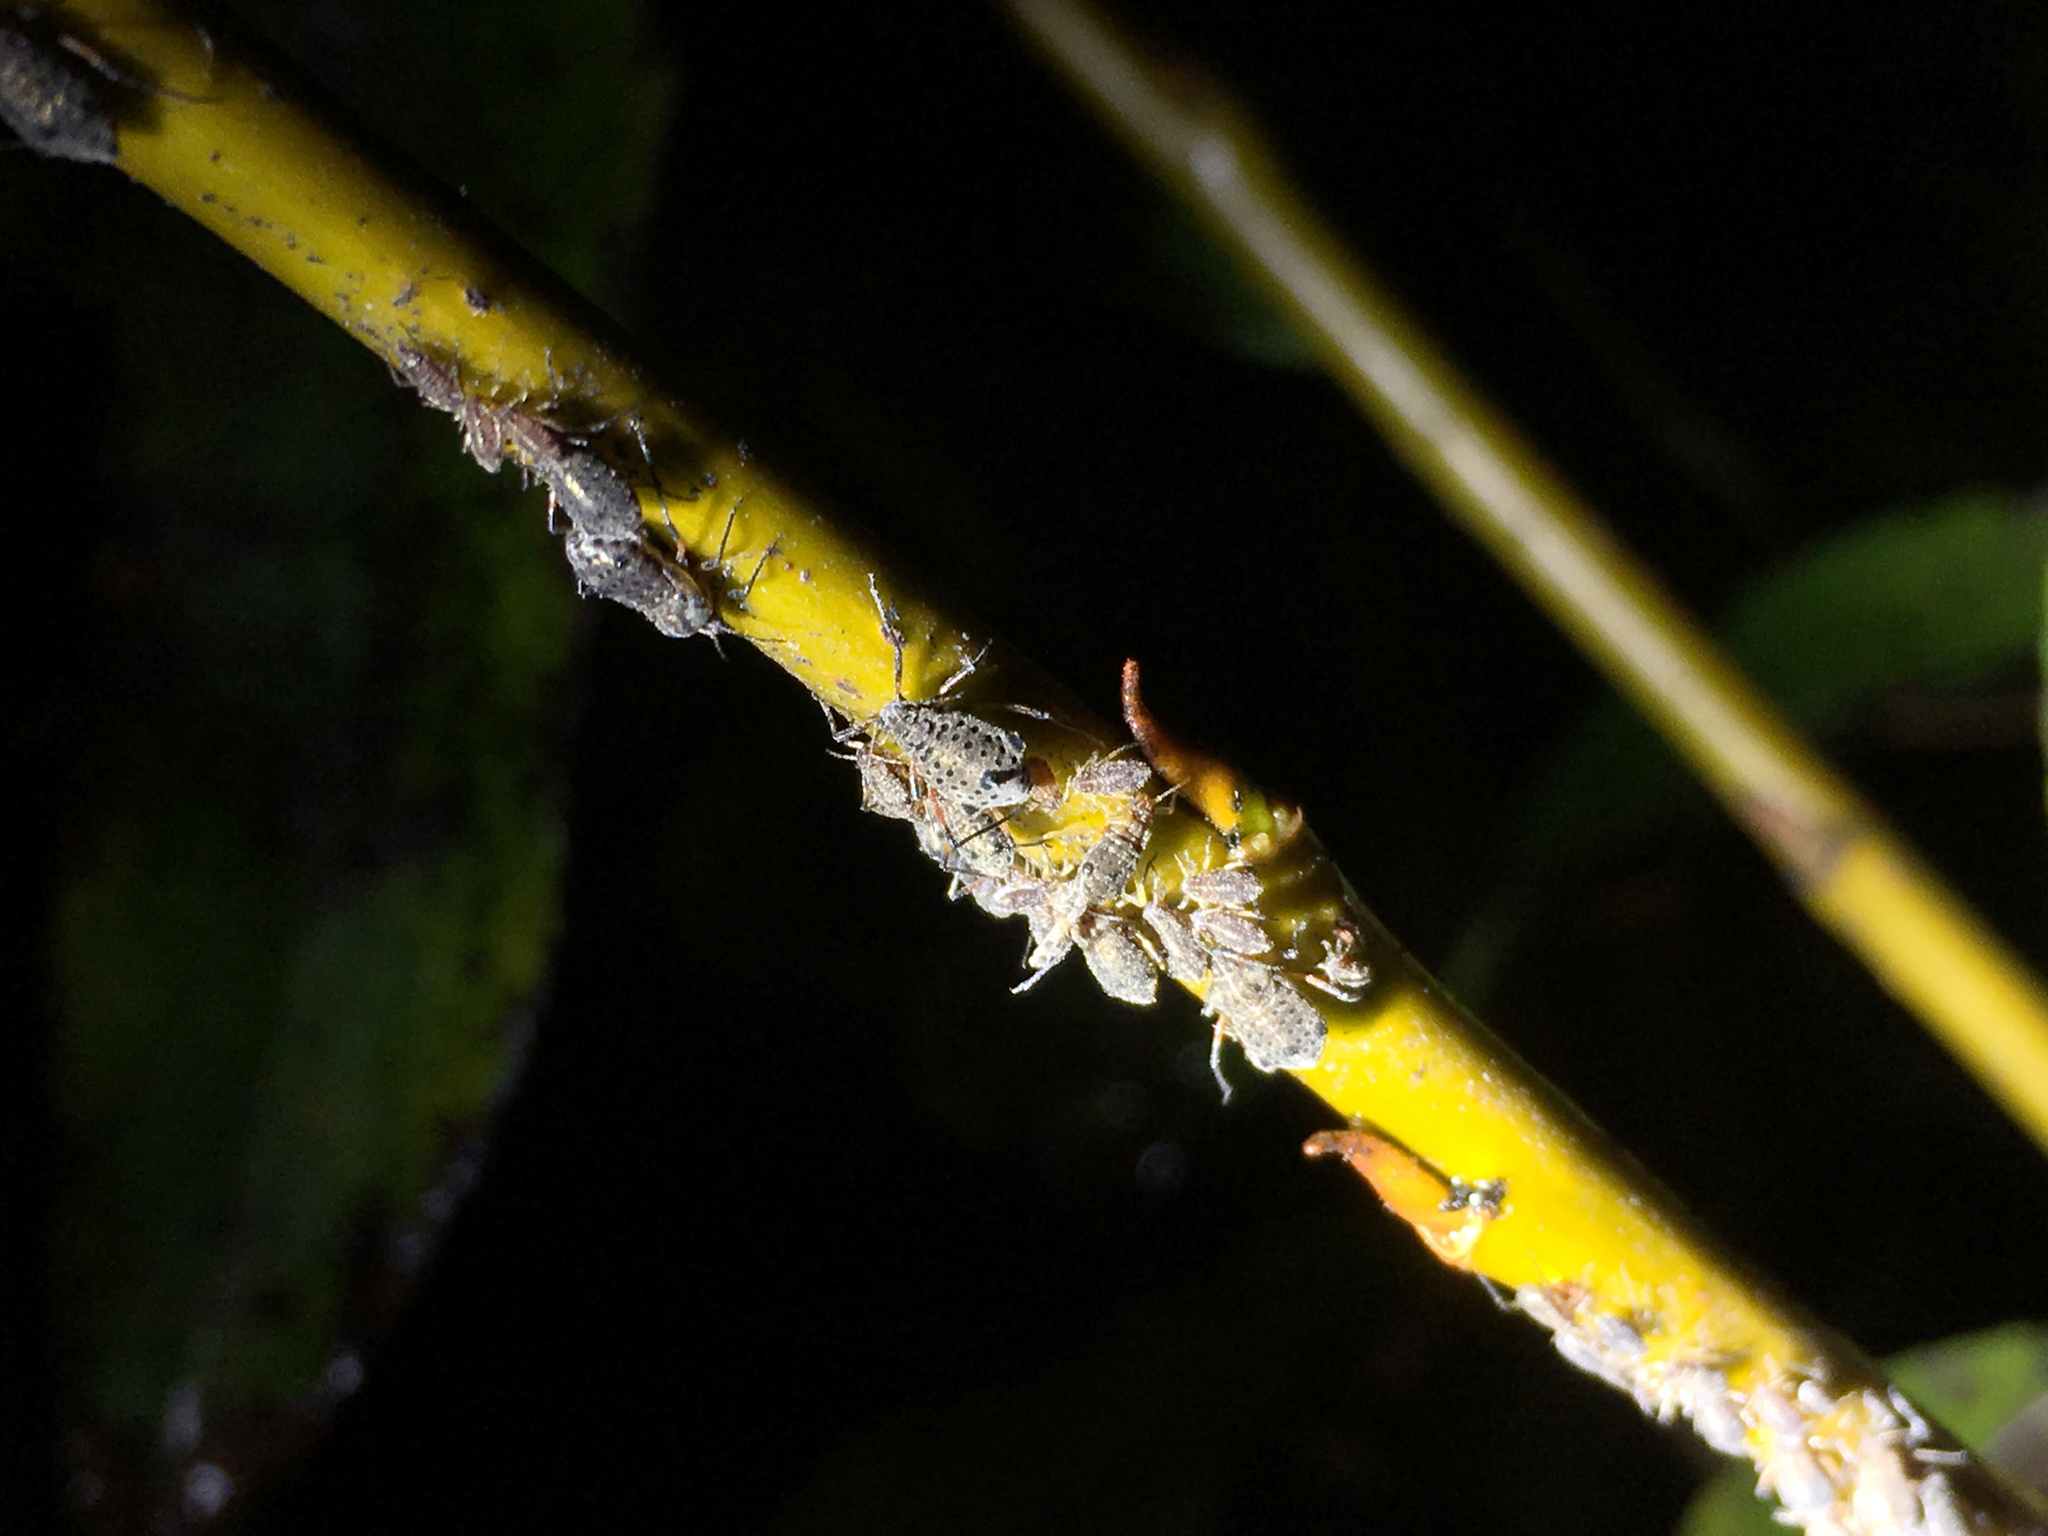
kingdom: Animalia
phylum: Arthropoda
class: Insecta
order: Hemiptera
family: Aphididae
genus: Tuberolachnus
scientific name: Tuberolachnus salignus
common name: Giant willow aphid
